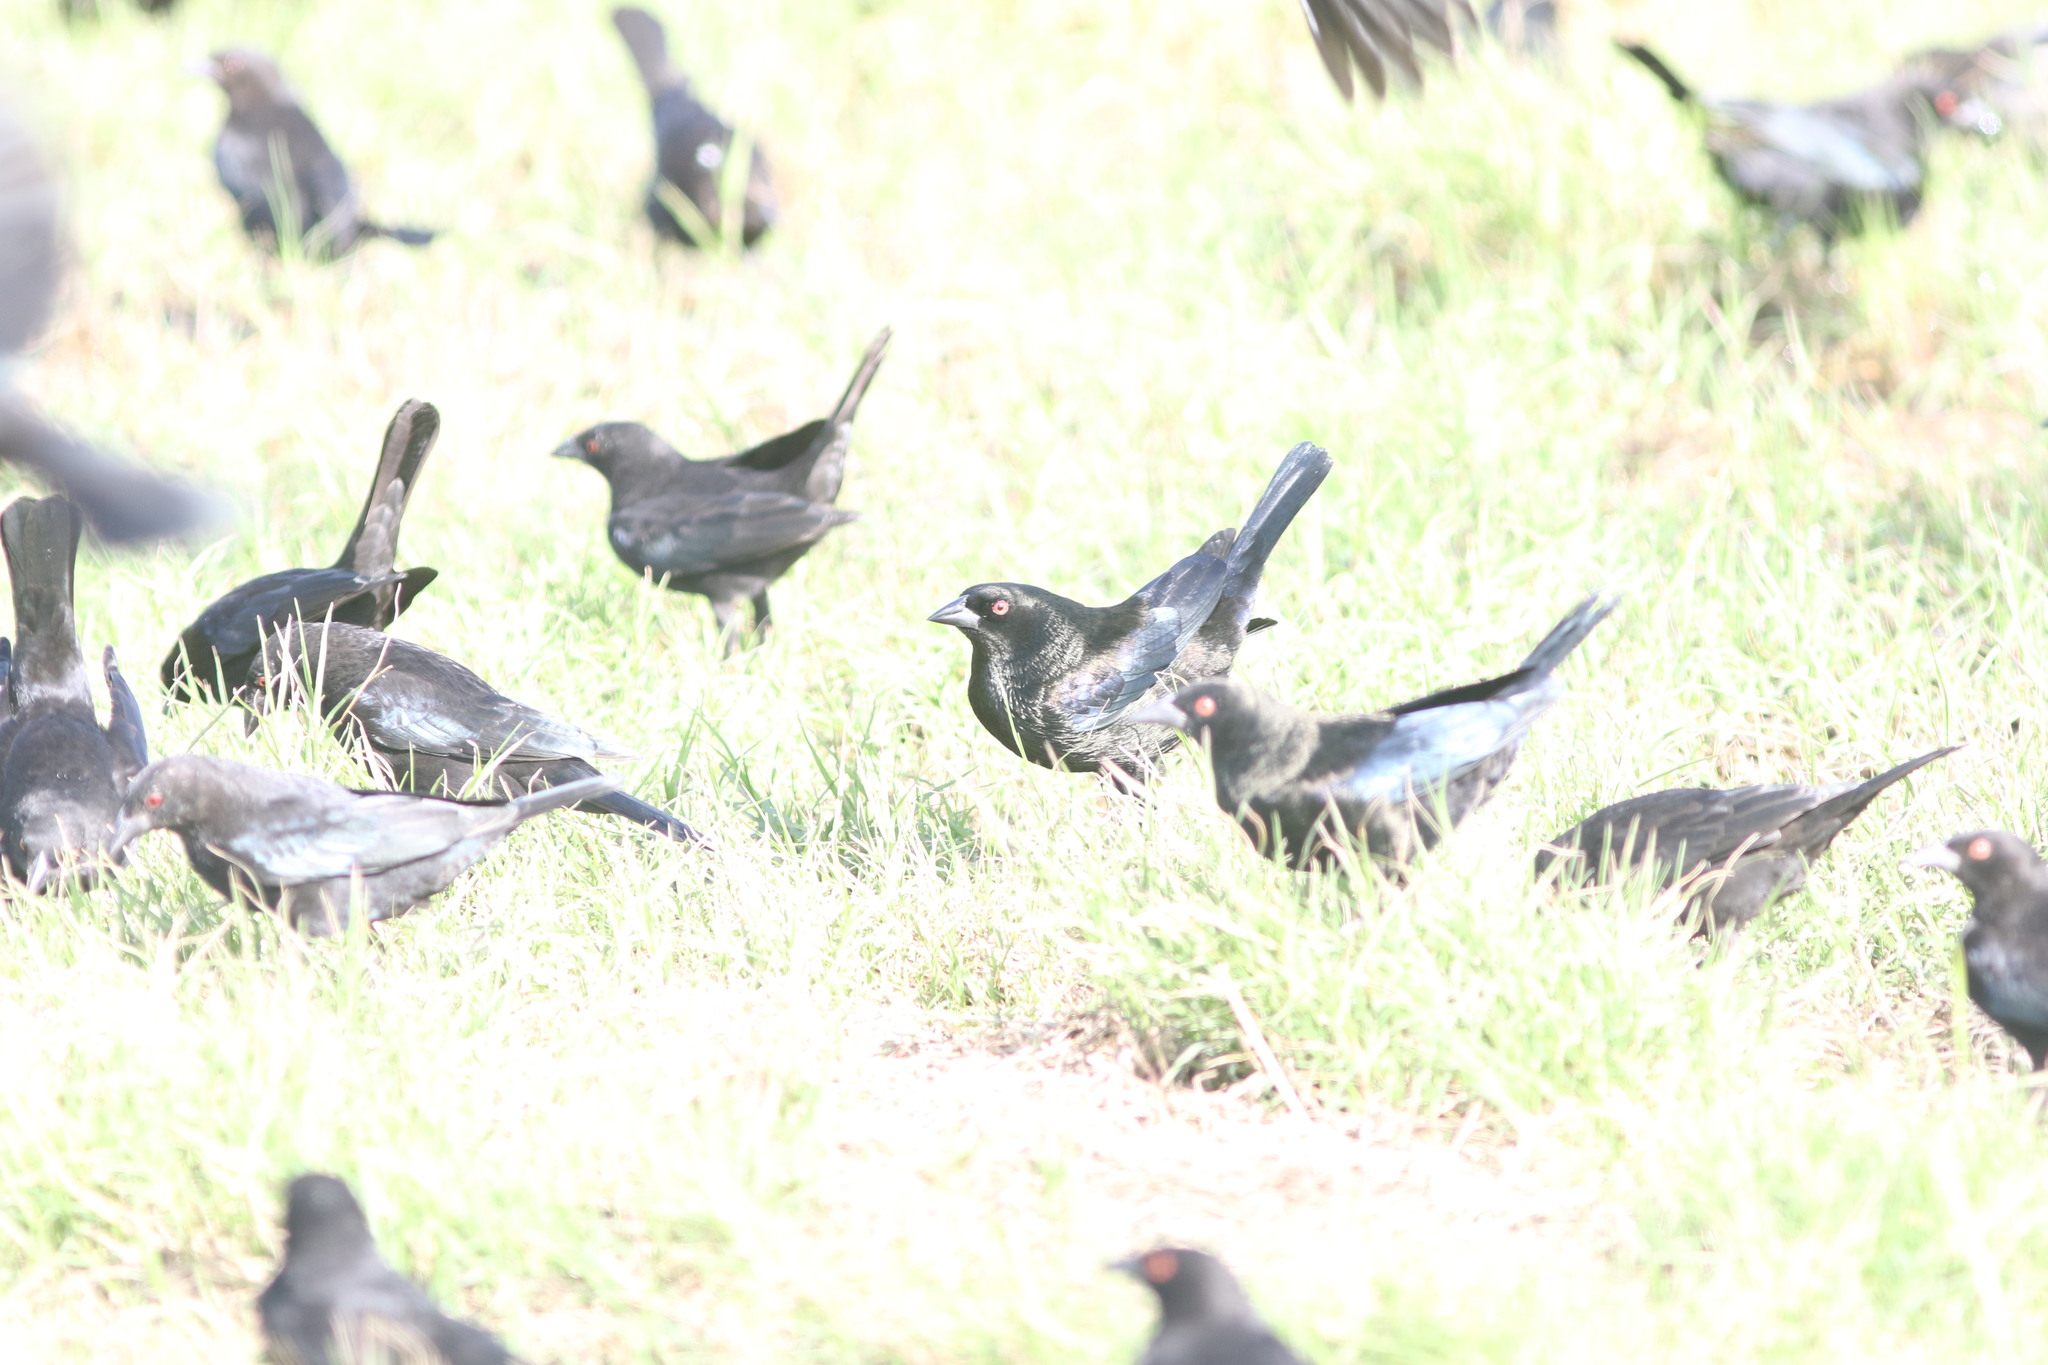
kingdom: Animalia
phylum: Chordata
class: Aves
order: Passeriformes
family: Icteridae
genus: Molothrus
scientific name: Molothrus aeneus
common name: Bronzed cowbird
